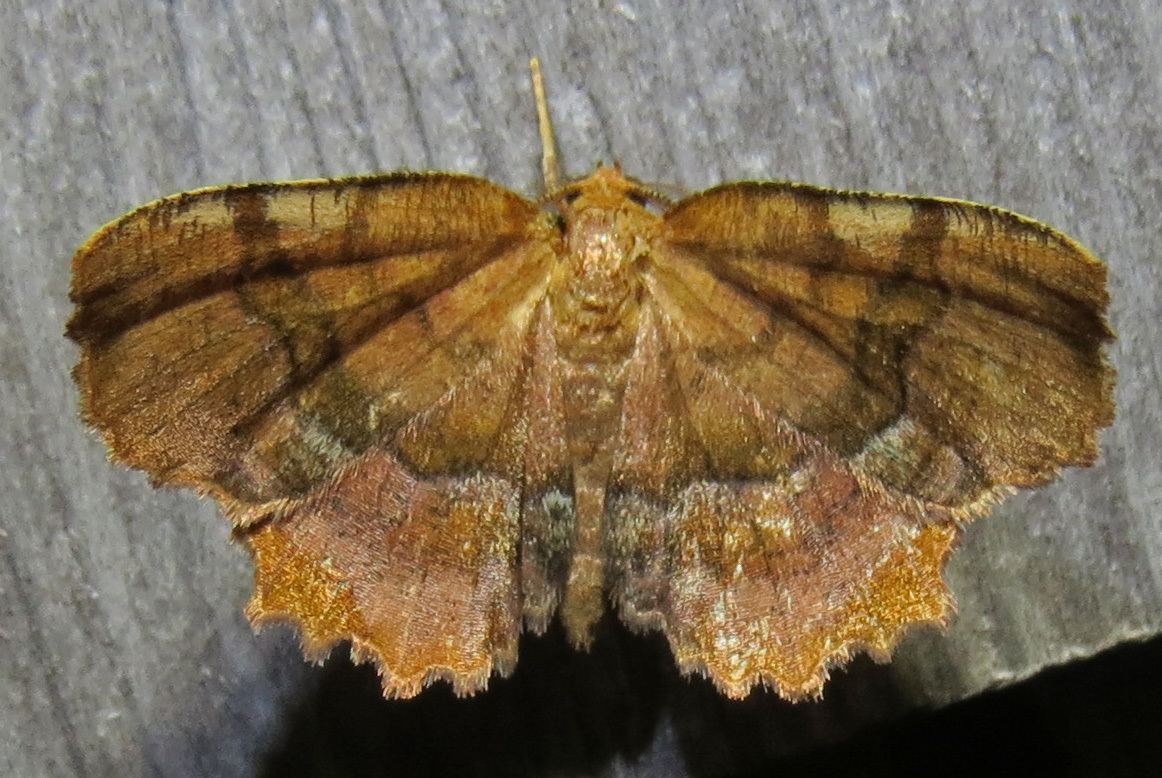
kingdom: Animalia
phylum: Arthropoda
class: Insecta
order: Lepidoptera
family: Geometridae
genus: Cepphis
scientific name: Cepphis armataria
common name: Scallop moth
